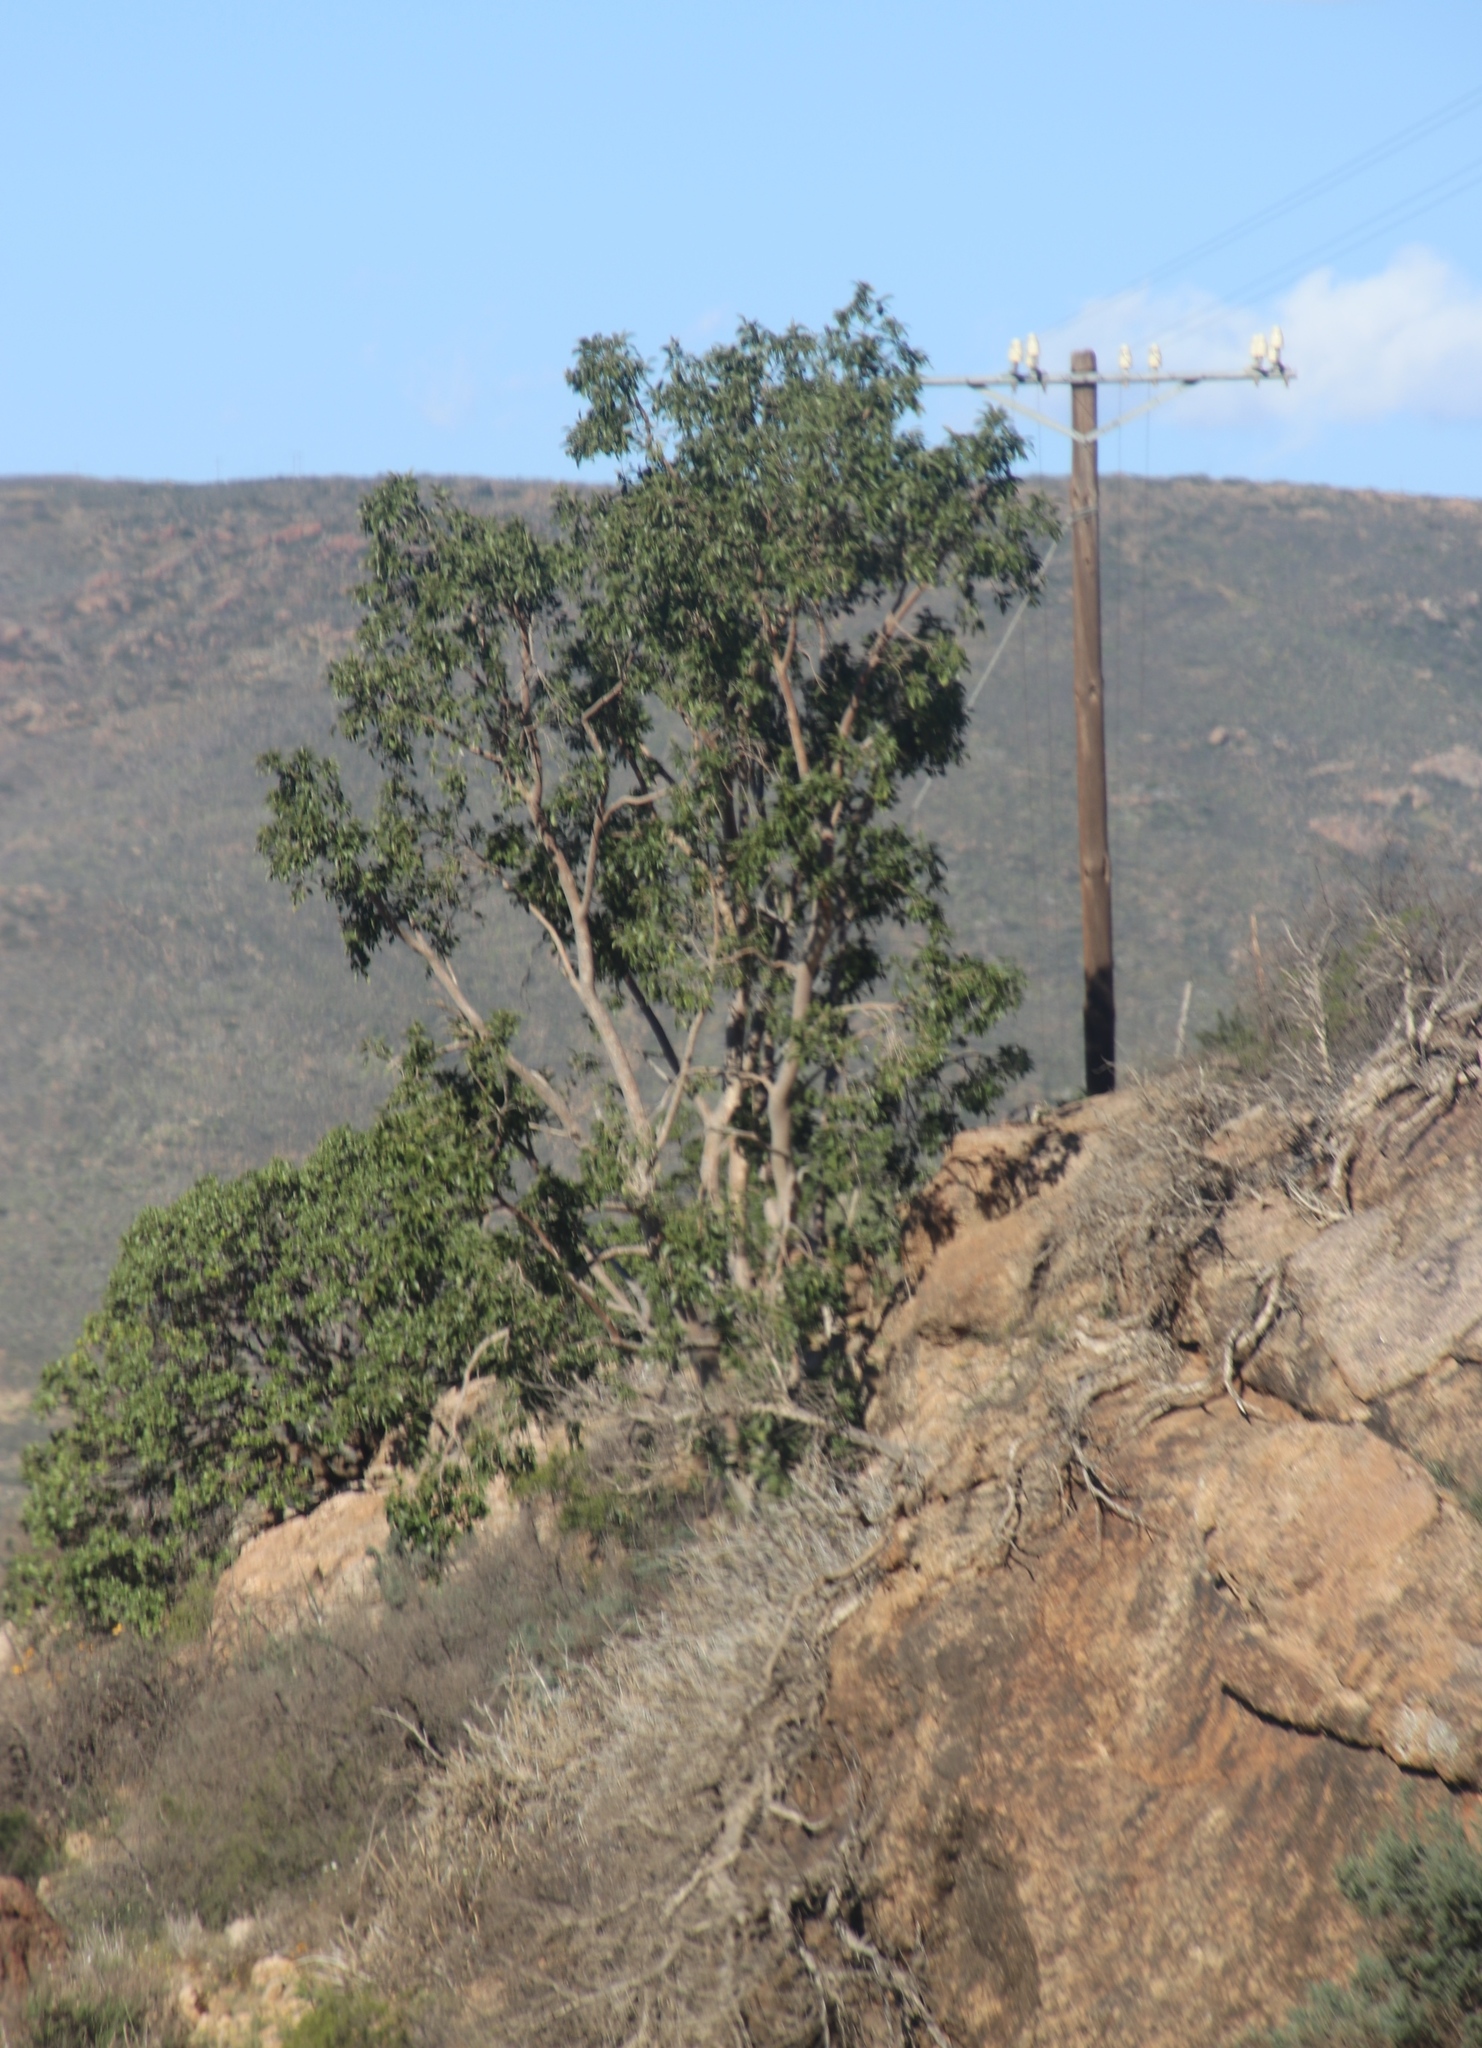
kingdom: Plantae
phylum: Tracheophyta
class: Magnoliopsida
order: Rosales
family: Moraceae
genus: Ficus
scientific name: Ficus cordata
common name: Namaqua rock fig
